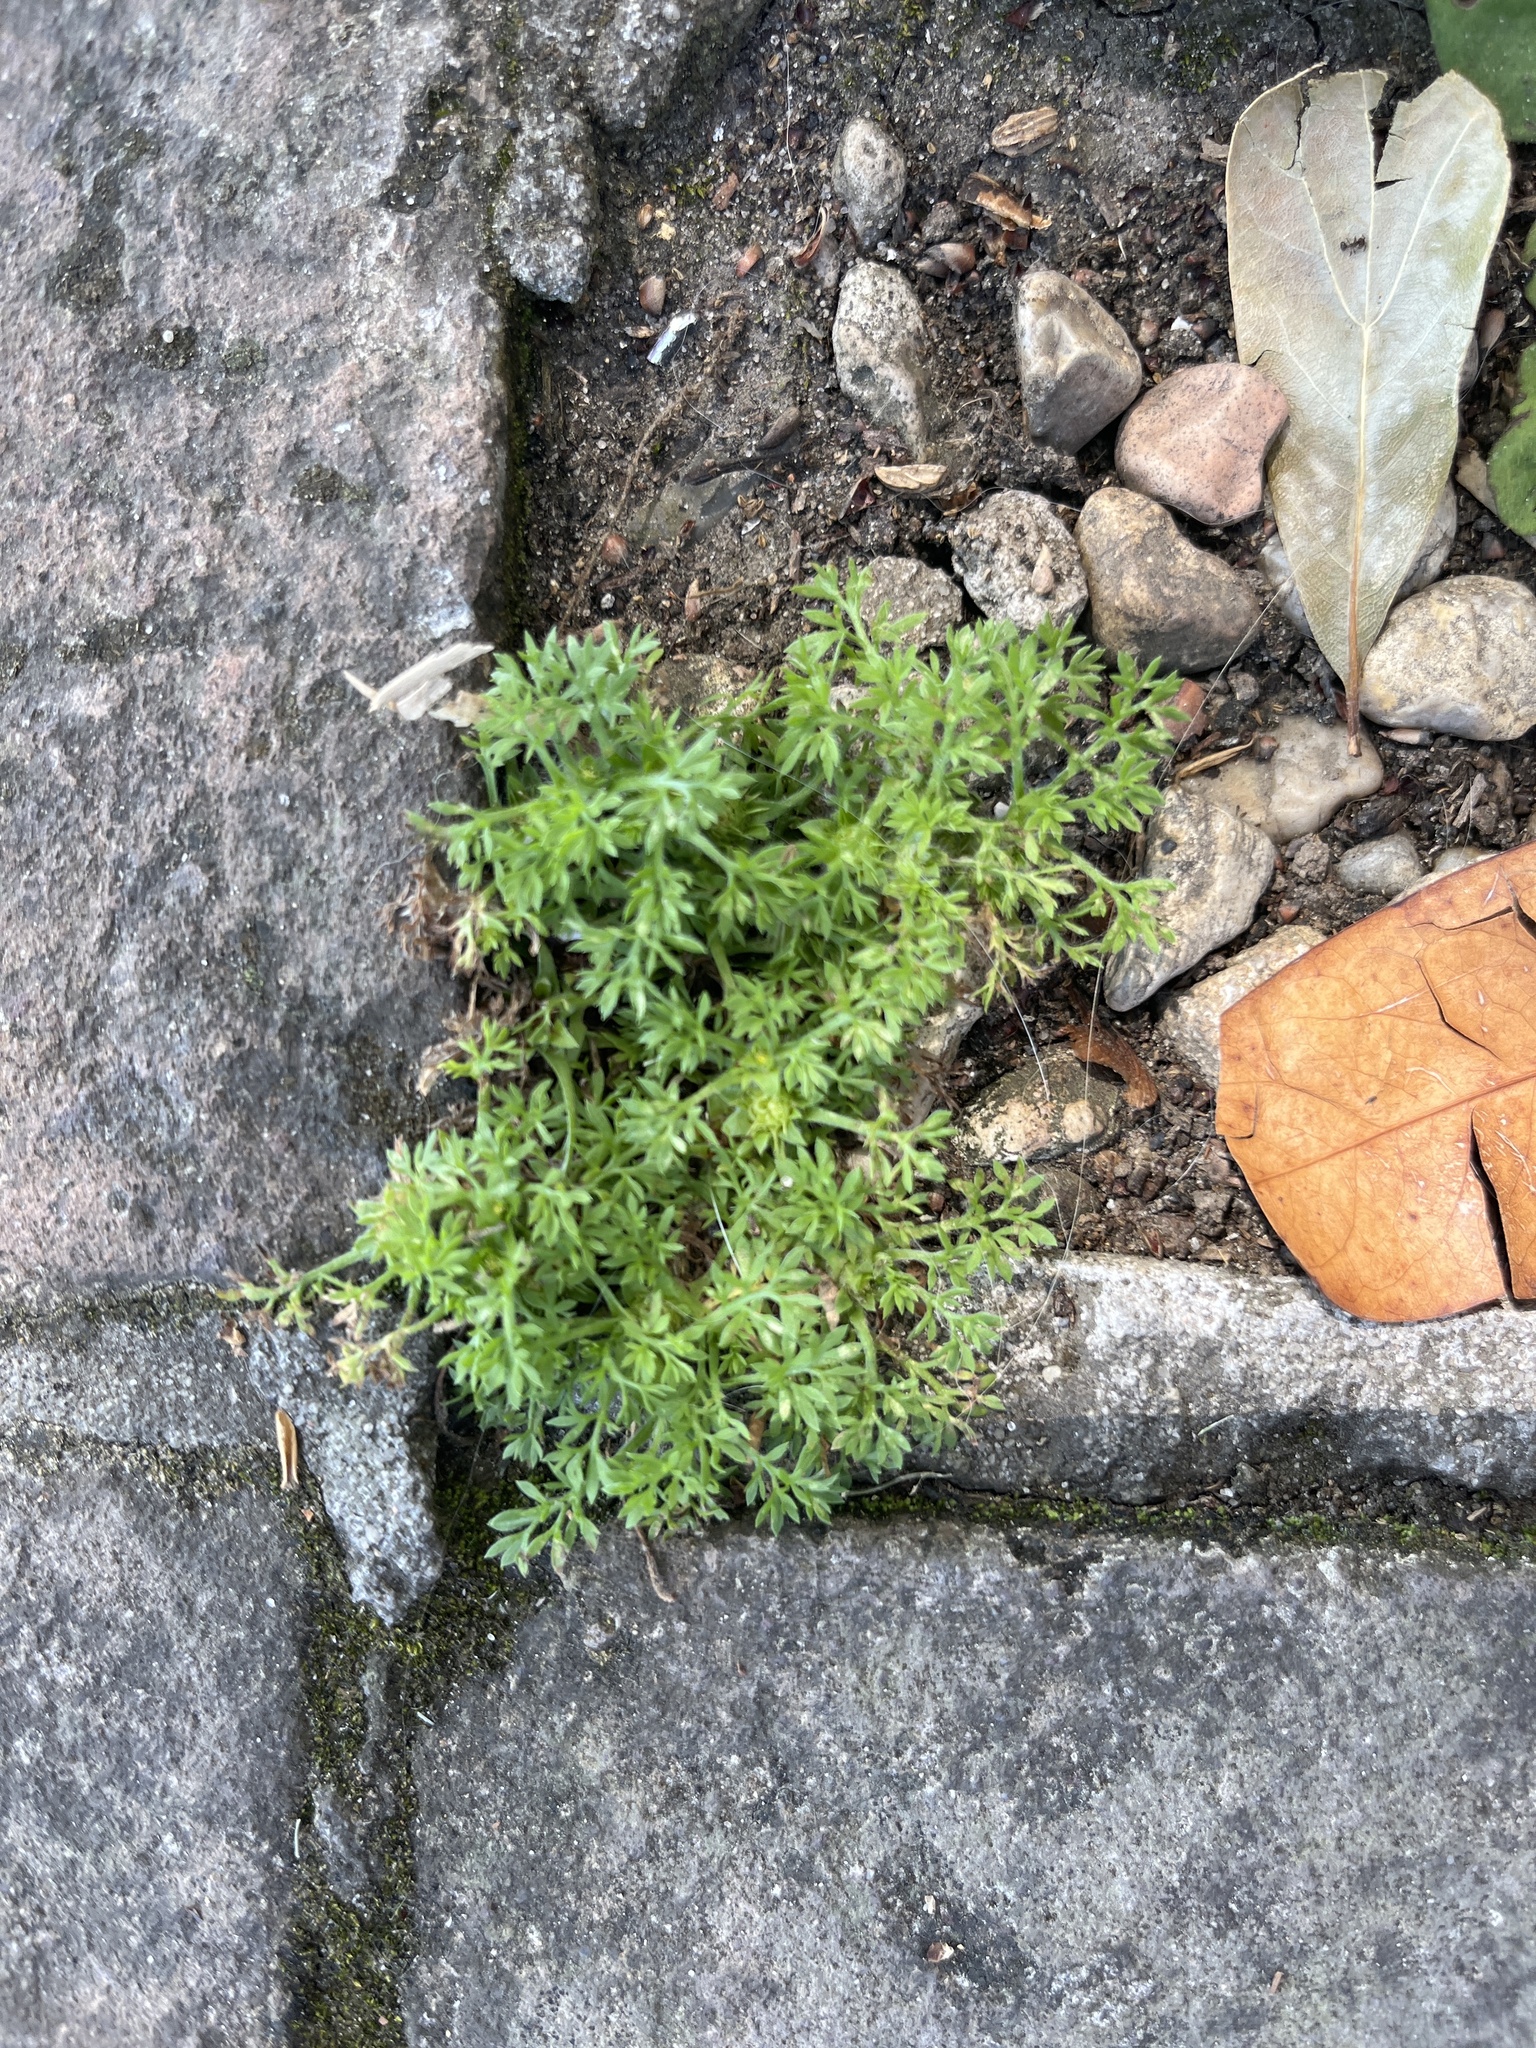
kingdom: Plantae
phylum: Tracheophyta
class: Magnoliopsida
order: Asterales
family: Asteraceae
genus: Soliva
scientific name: Soliva sessilis
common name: Field burrweed
